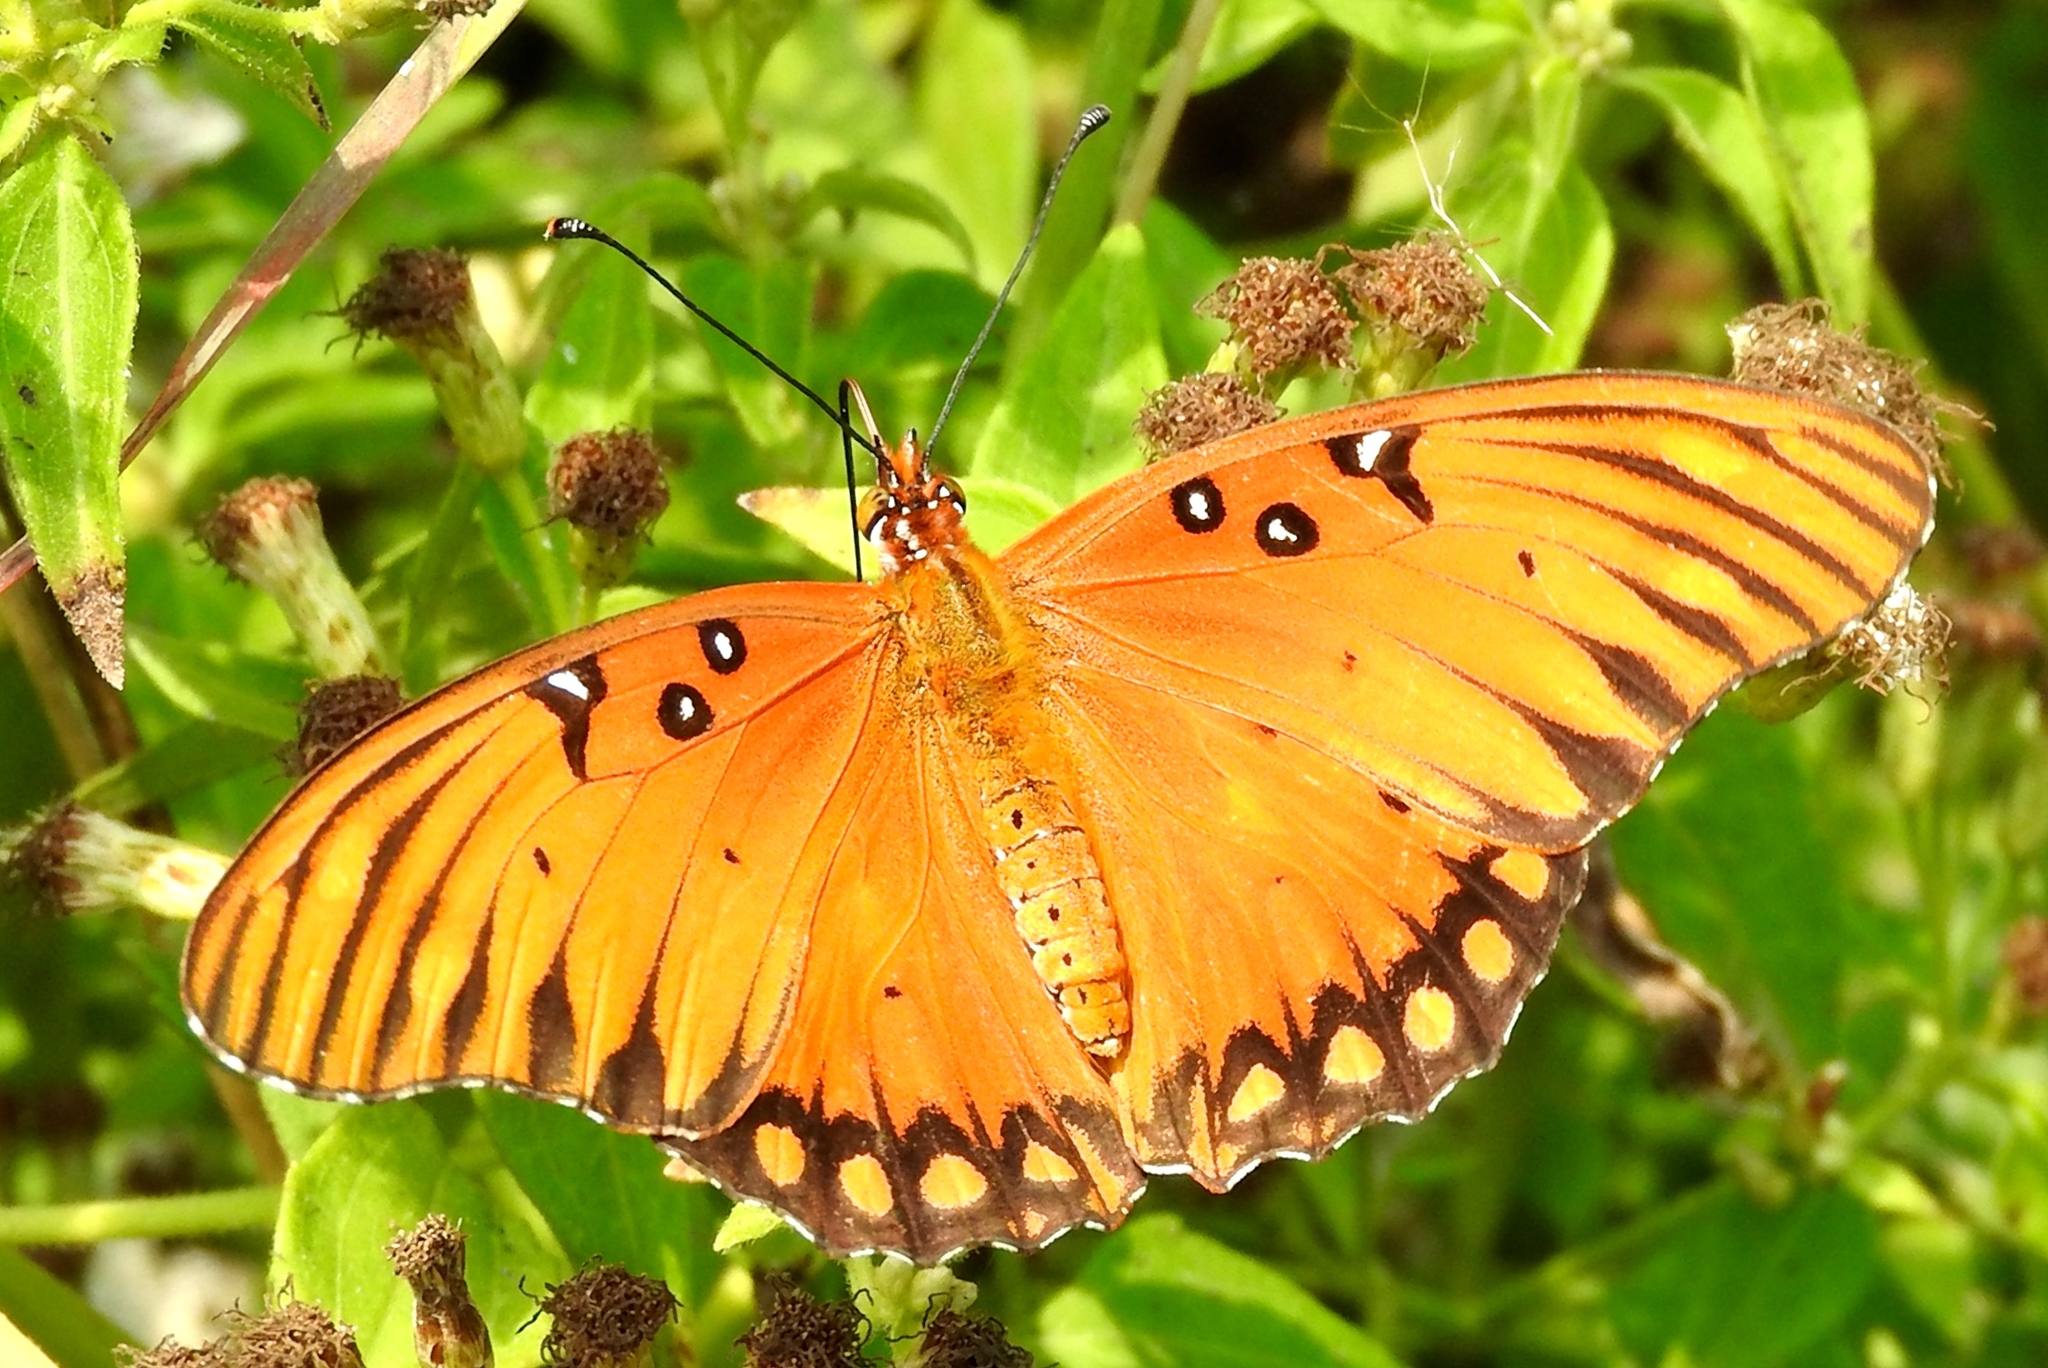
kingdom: Animalia
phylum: Arthropoda
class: Insecta
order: Lepidoptera
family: Nymphalidae
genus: Dione
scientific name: Dione vanillae
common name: Gulf fritillary
